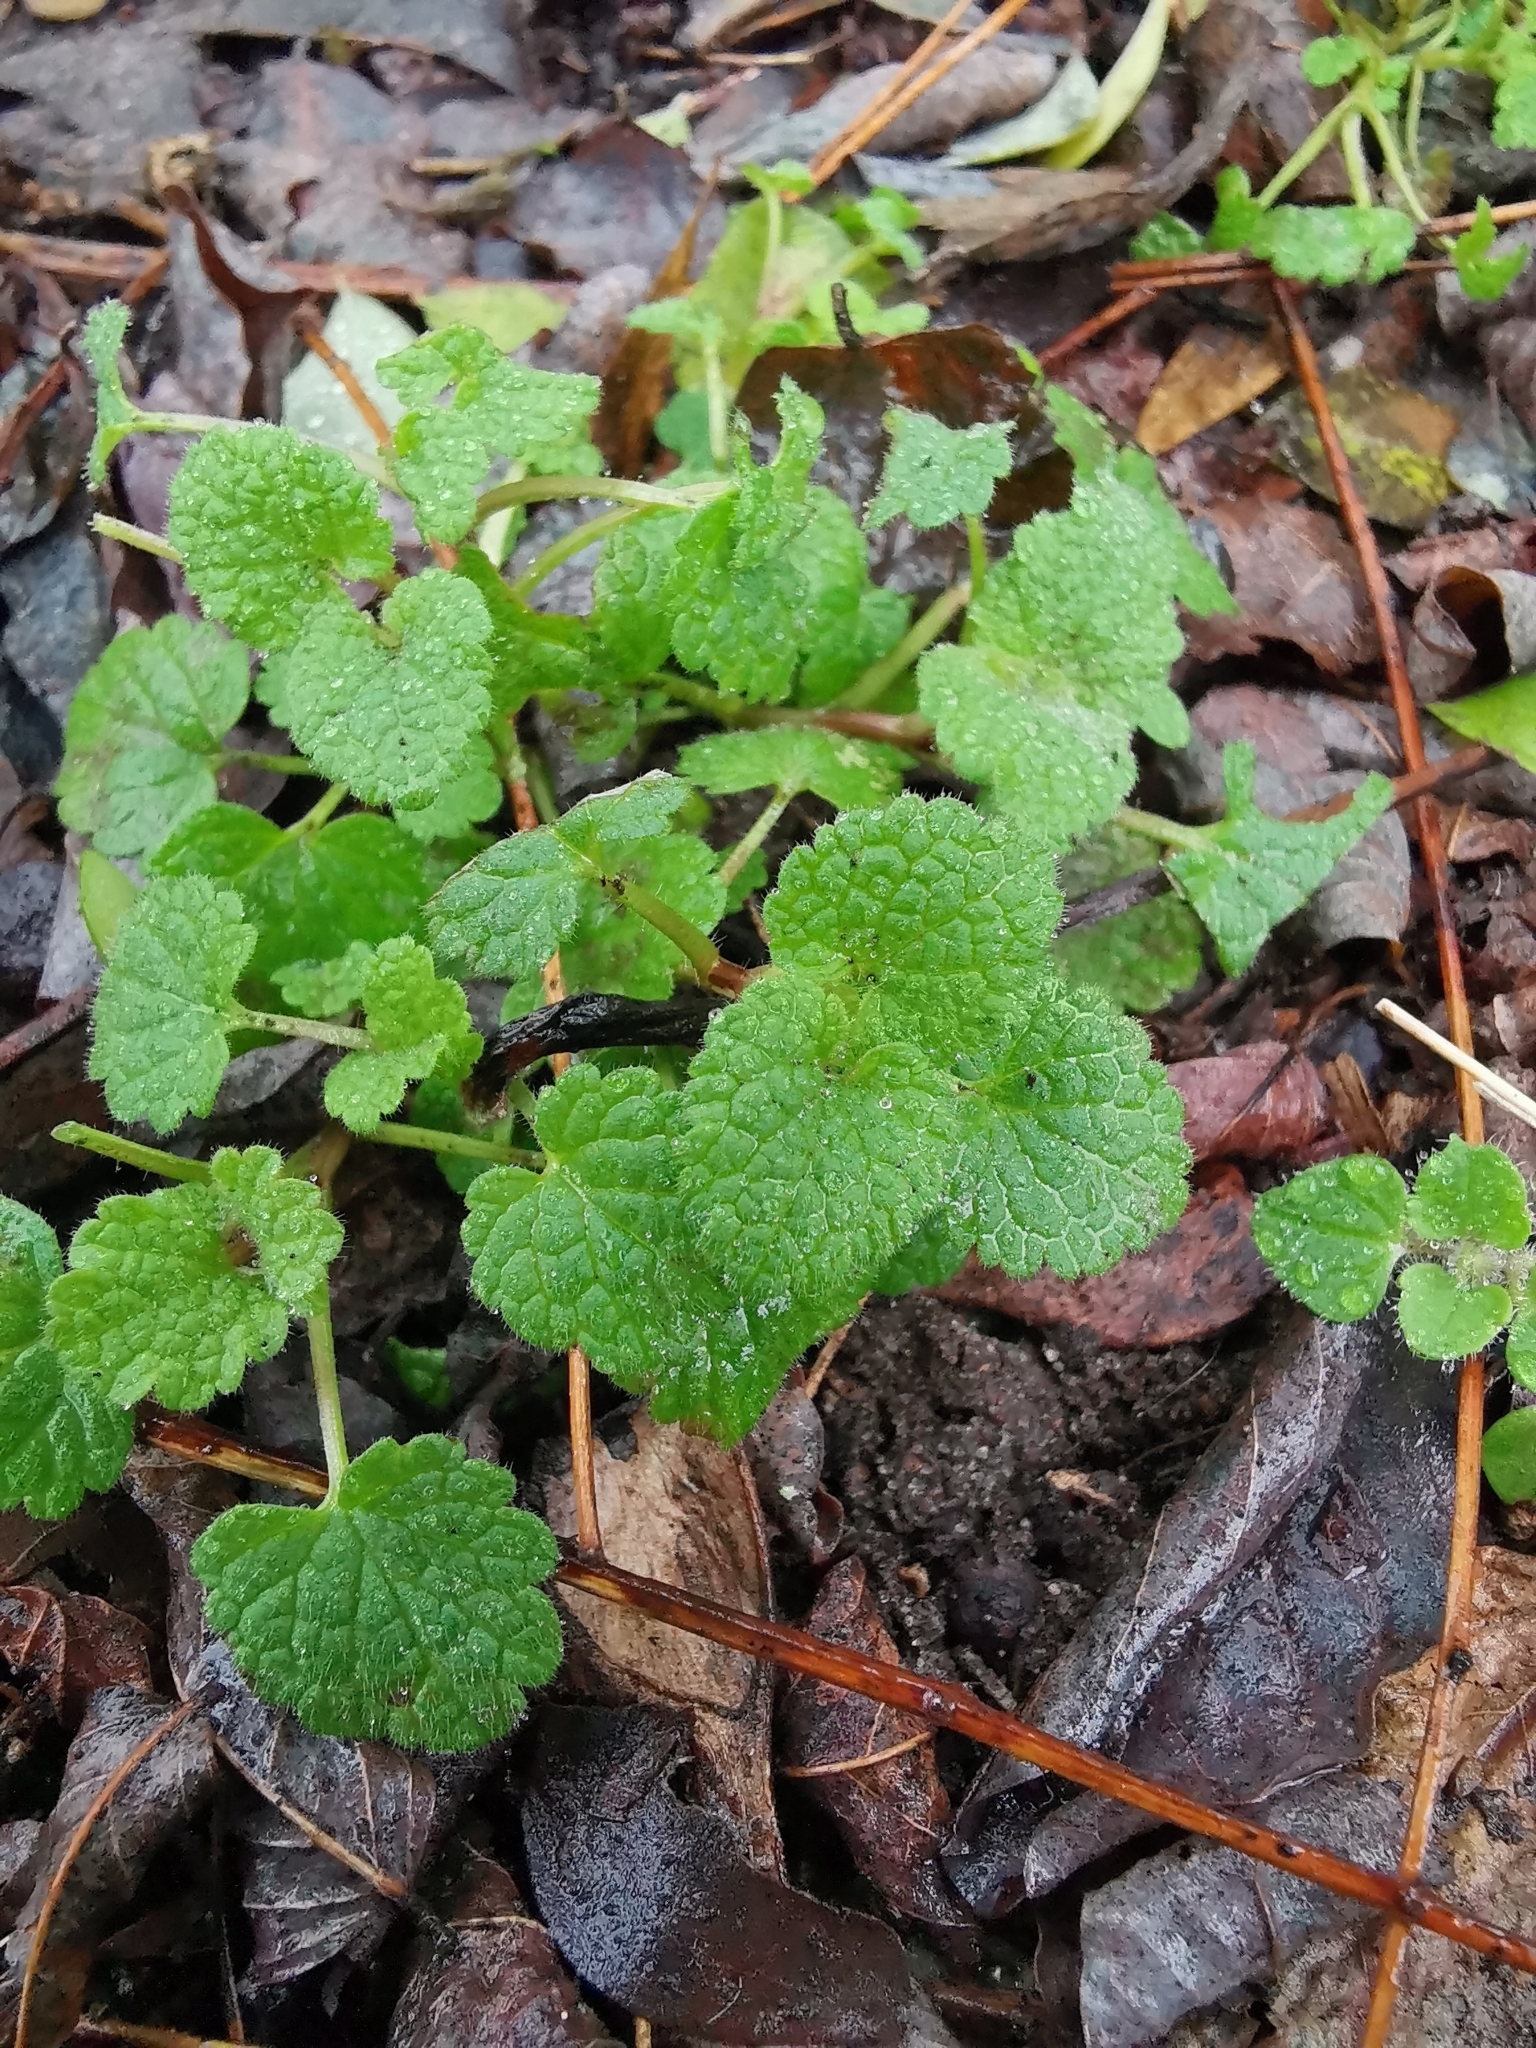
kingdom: Plantae
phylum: Tracheophyta
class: Magnoliopsida
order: Lamiales
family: Lamiaceae
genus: Lamium
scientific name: Lamium purpureum
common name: Red dead-nettle
